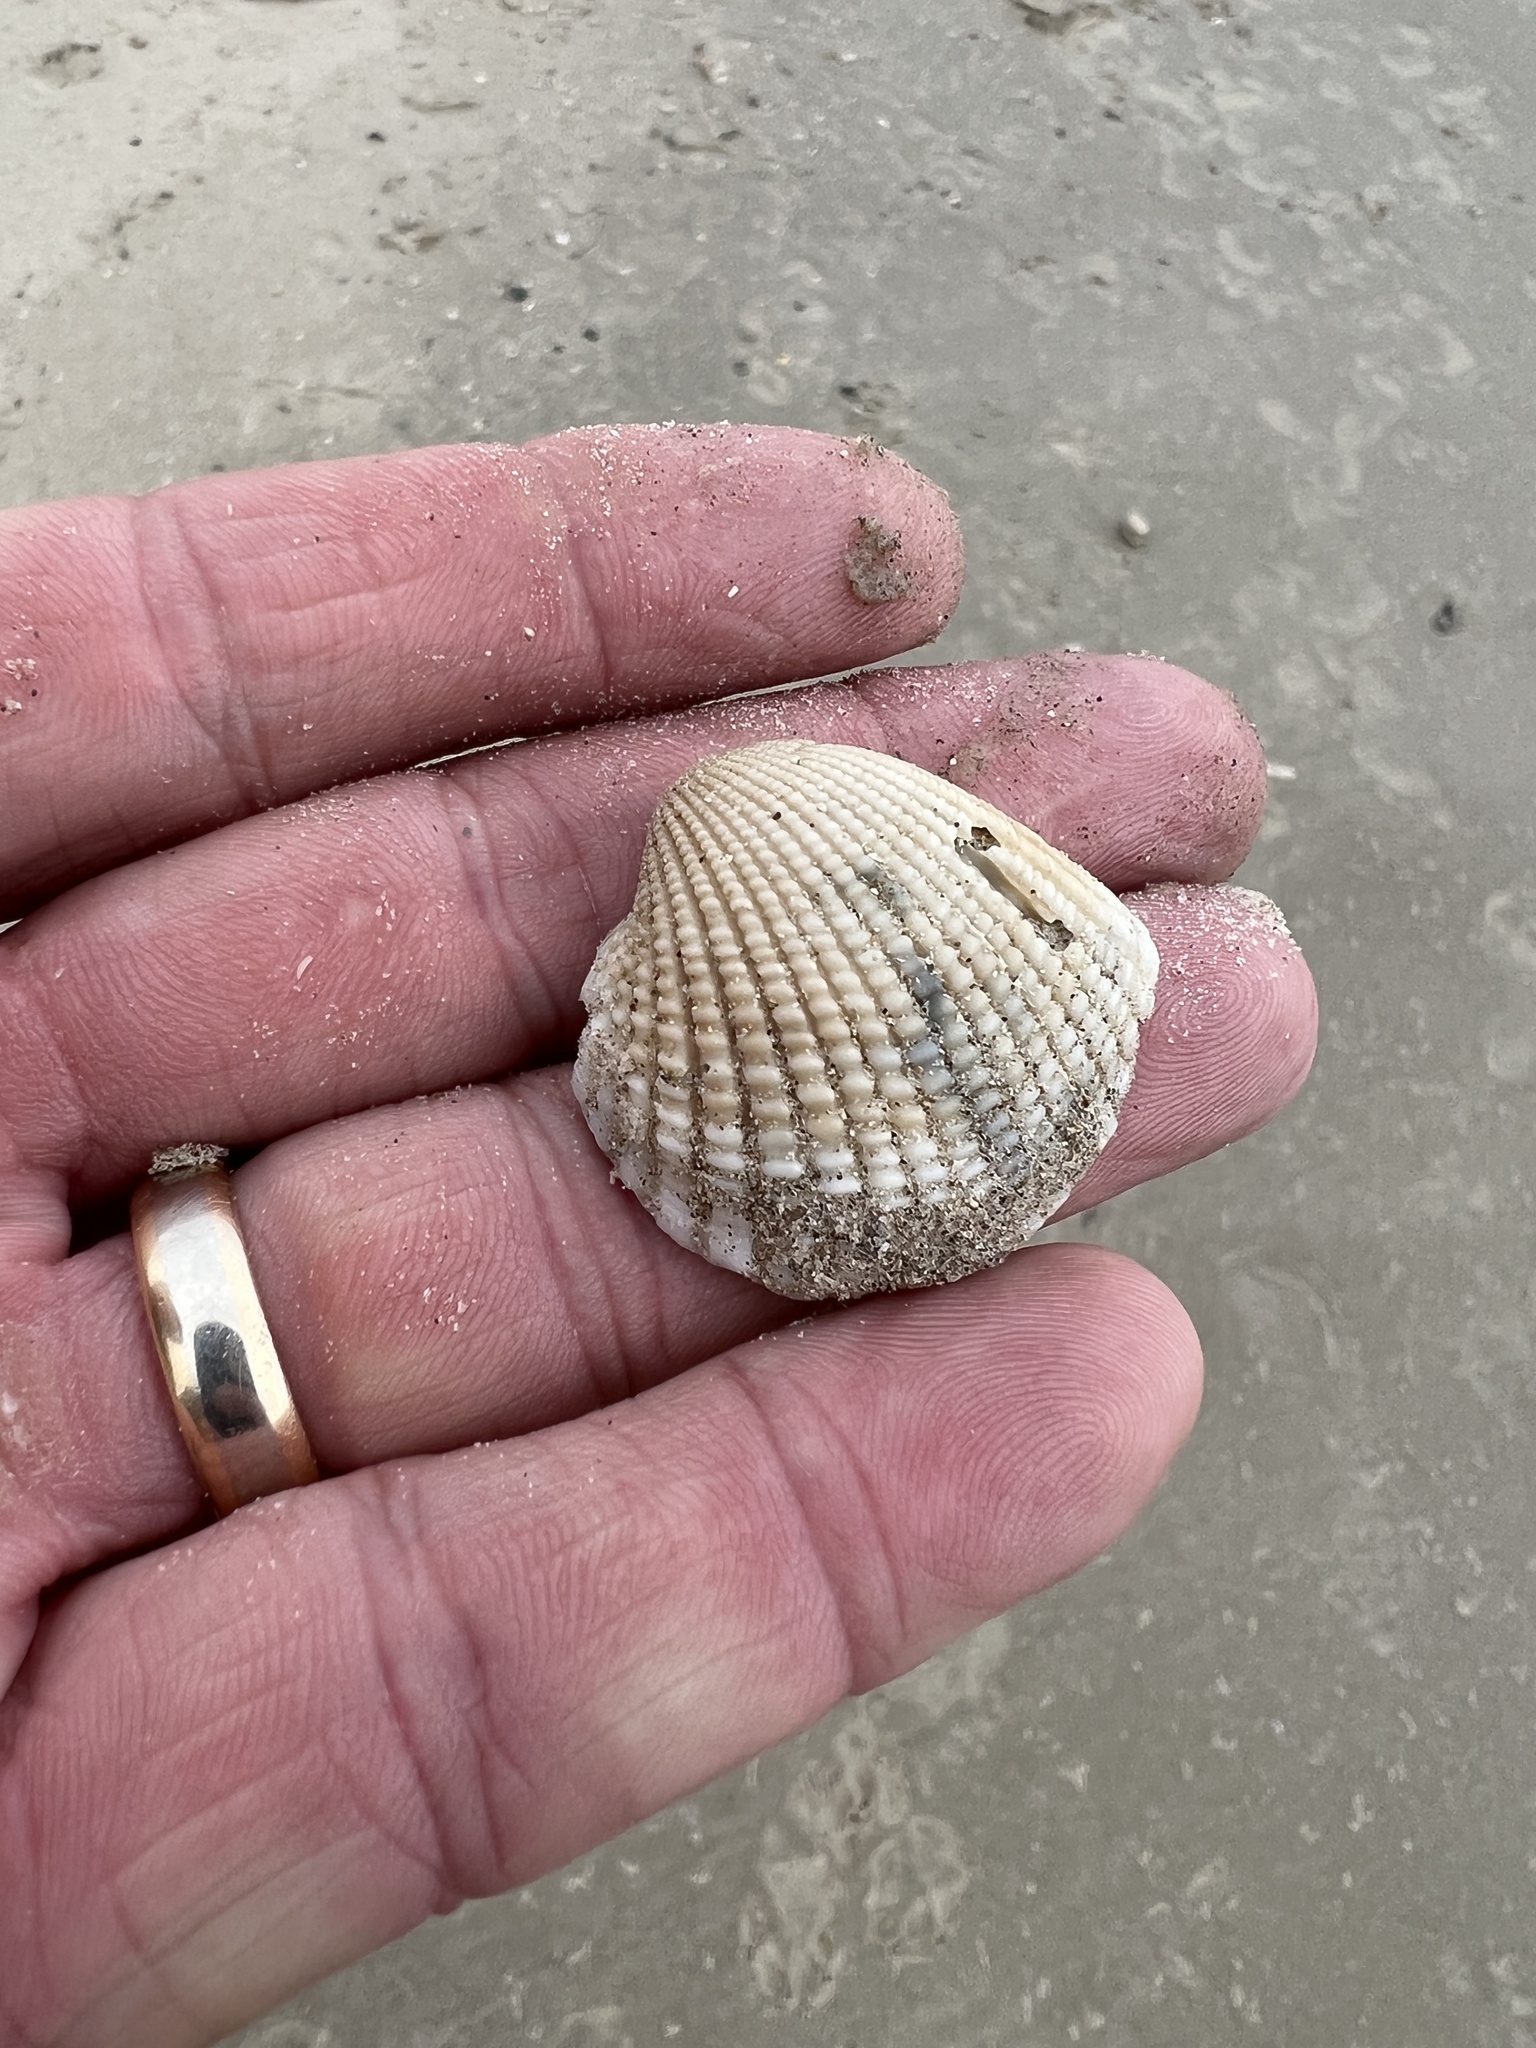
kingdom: Animalia
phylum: Mollusca
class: Bivalvia
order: Arcida
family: Arcidae
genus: Anadara
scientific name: Anadara brasiliana
